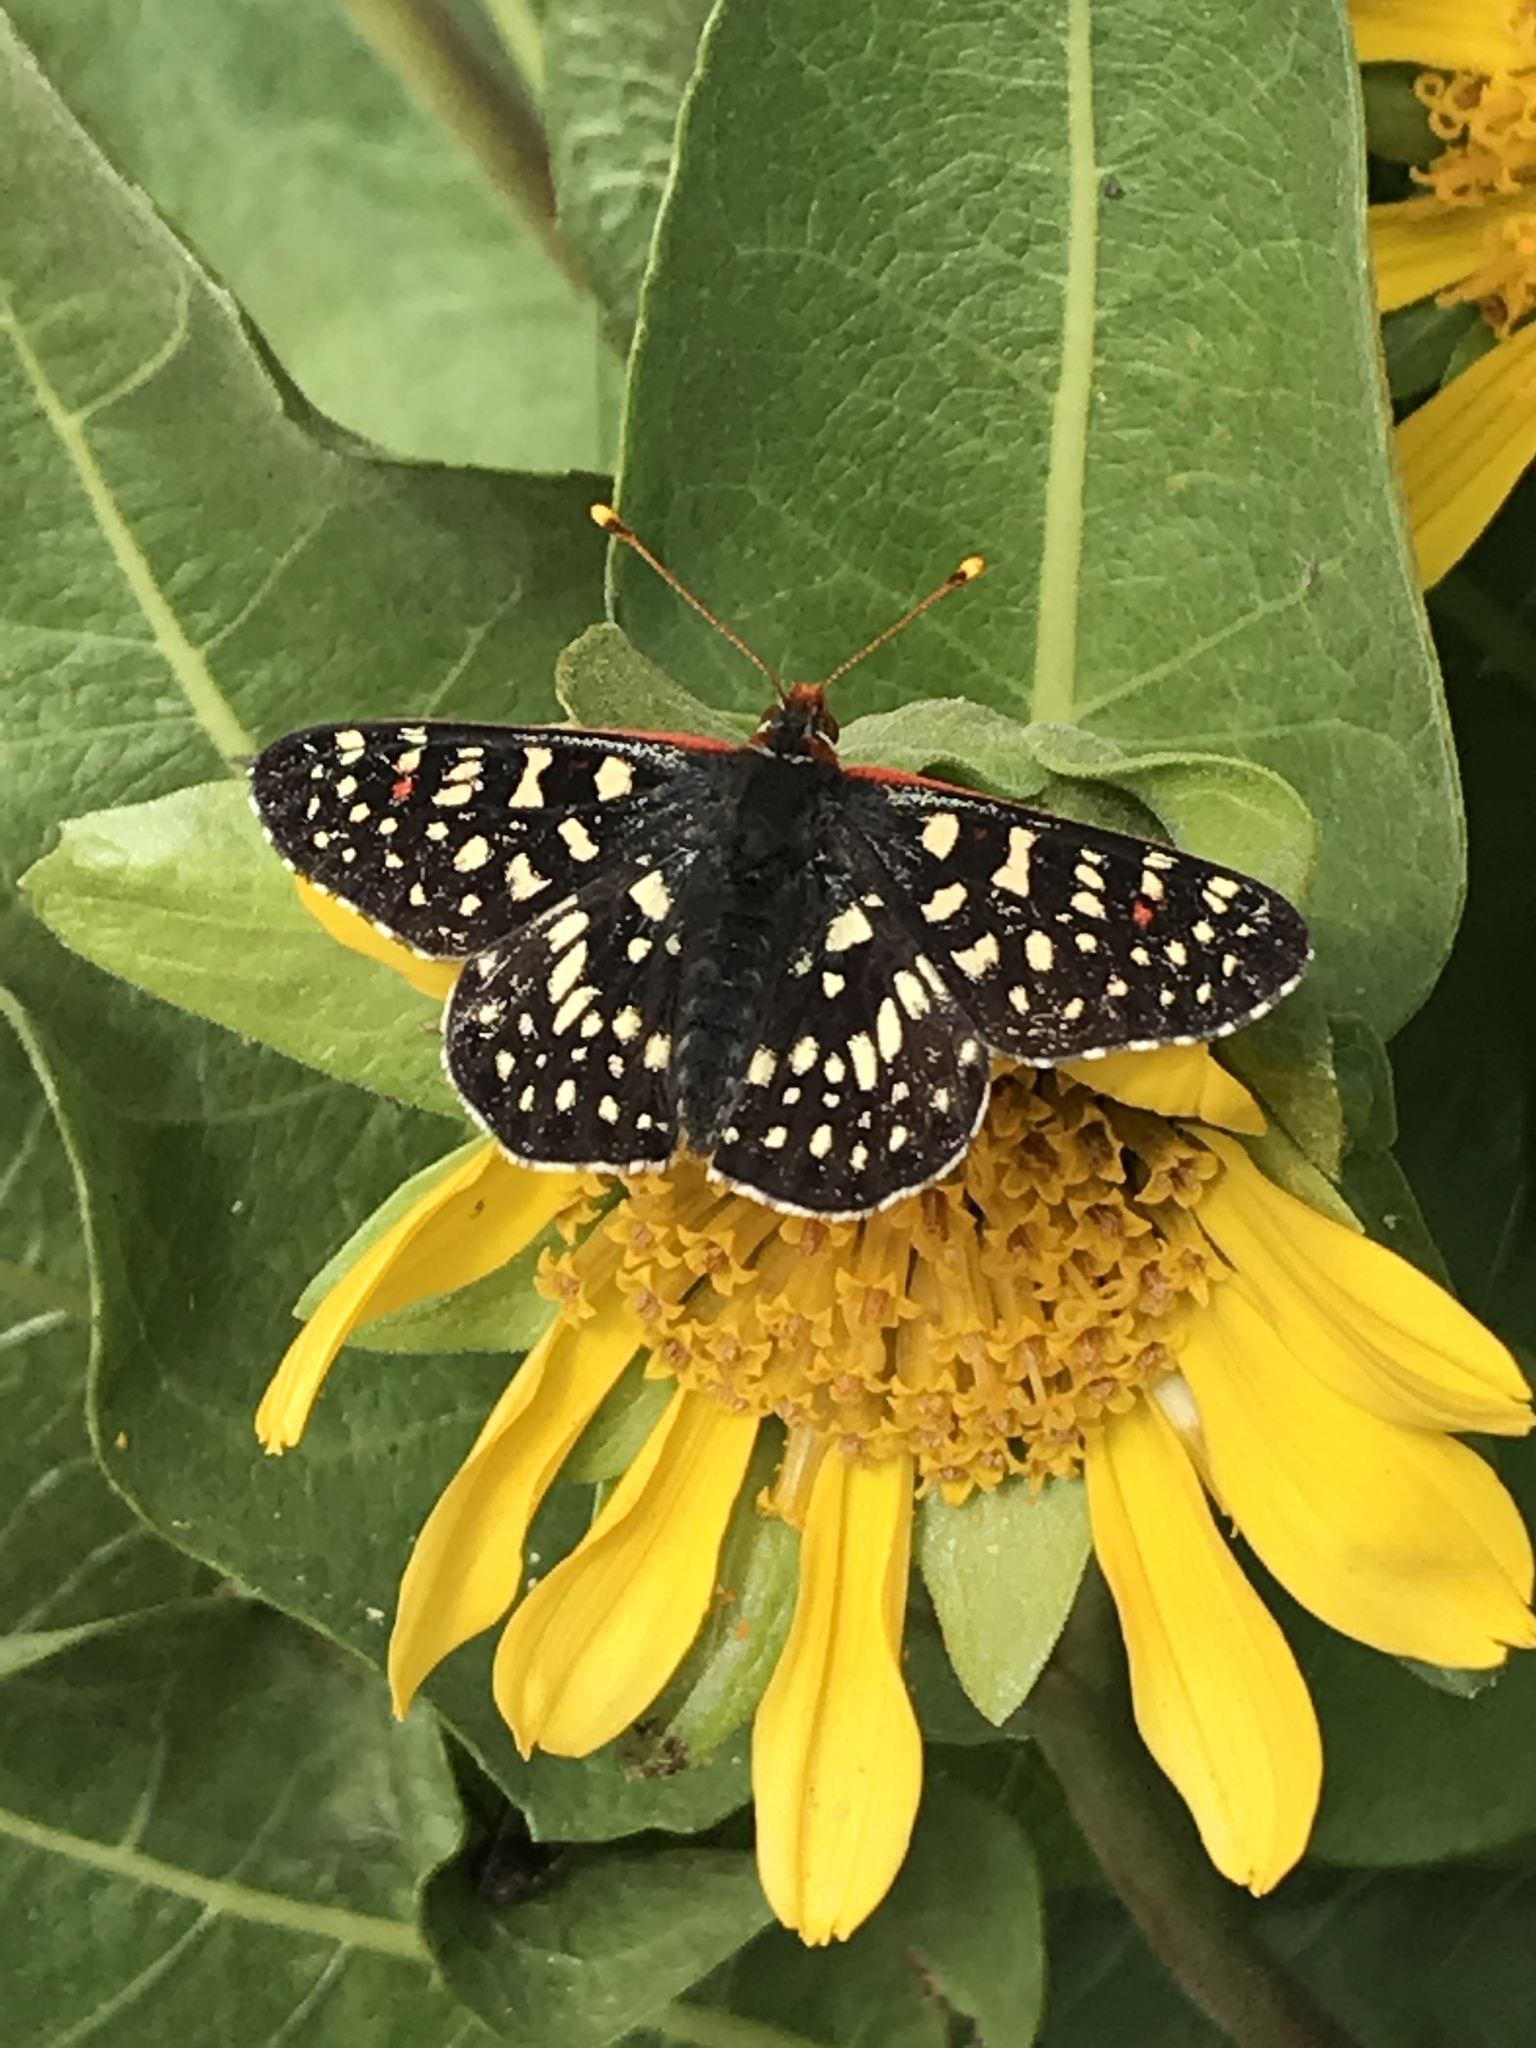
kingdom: Animalia
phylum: Arthropoda
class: Insecta
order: Lepidoptera
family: Nymphalidae
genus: Occidryas
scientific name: Occidryas chalcedona
